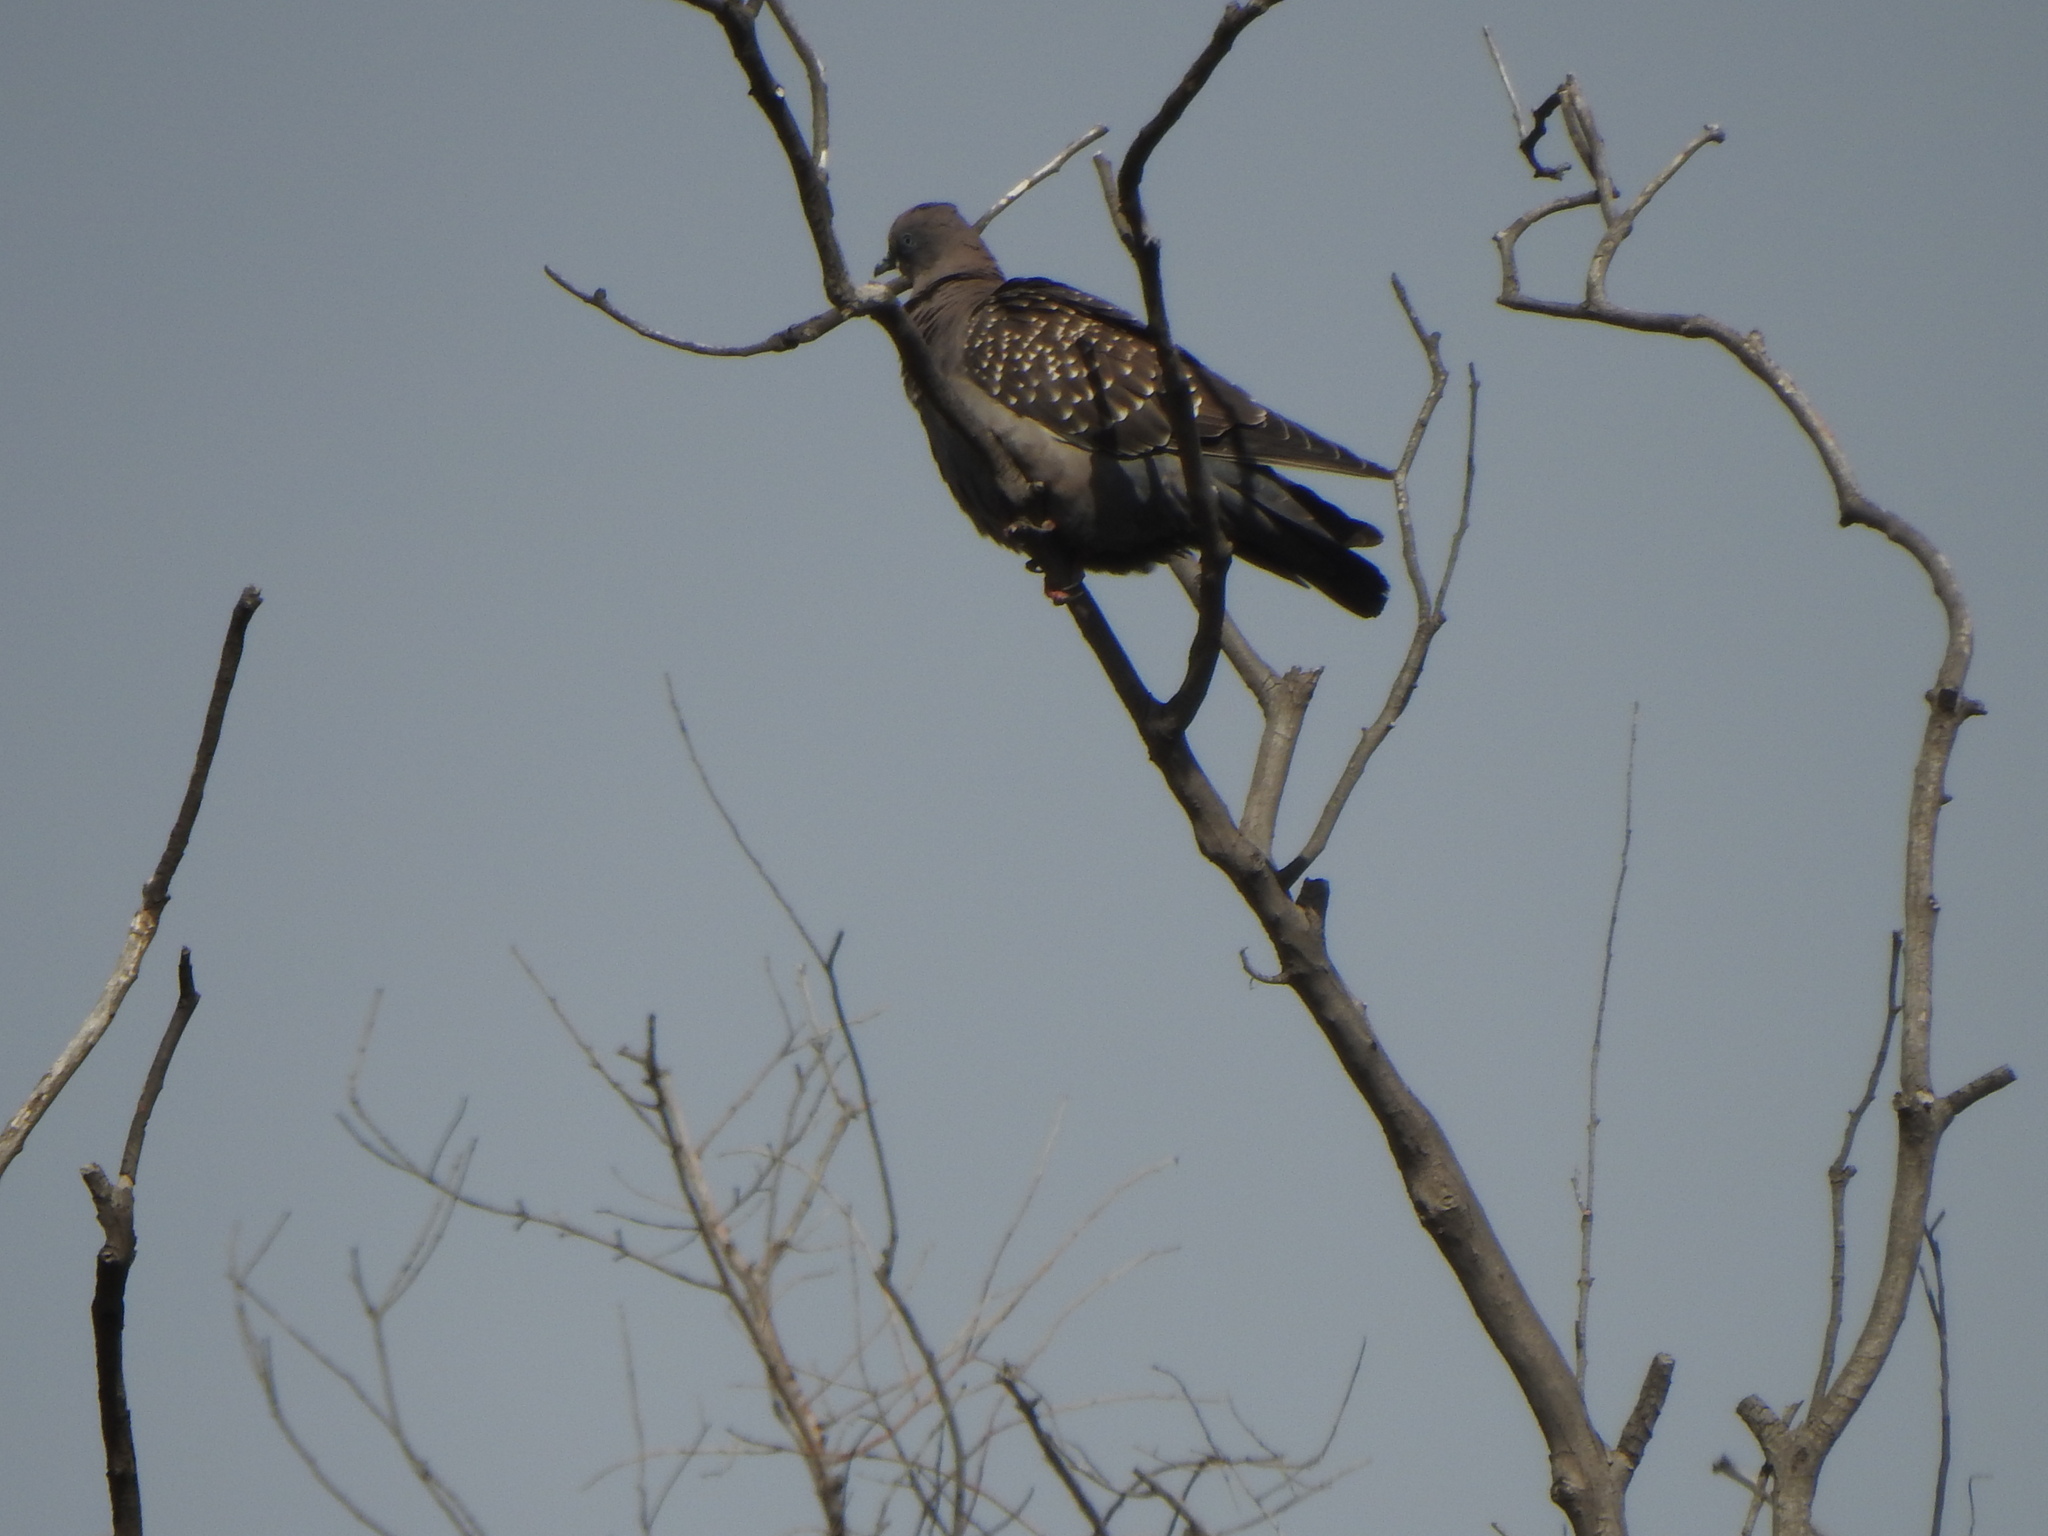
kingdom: Animalia
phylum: Chordata
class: Aves
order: Columbiformes
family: Columbidae
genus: Patagioenas
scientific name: Patagioenas maculosa
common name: Spot-winged pigeon
